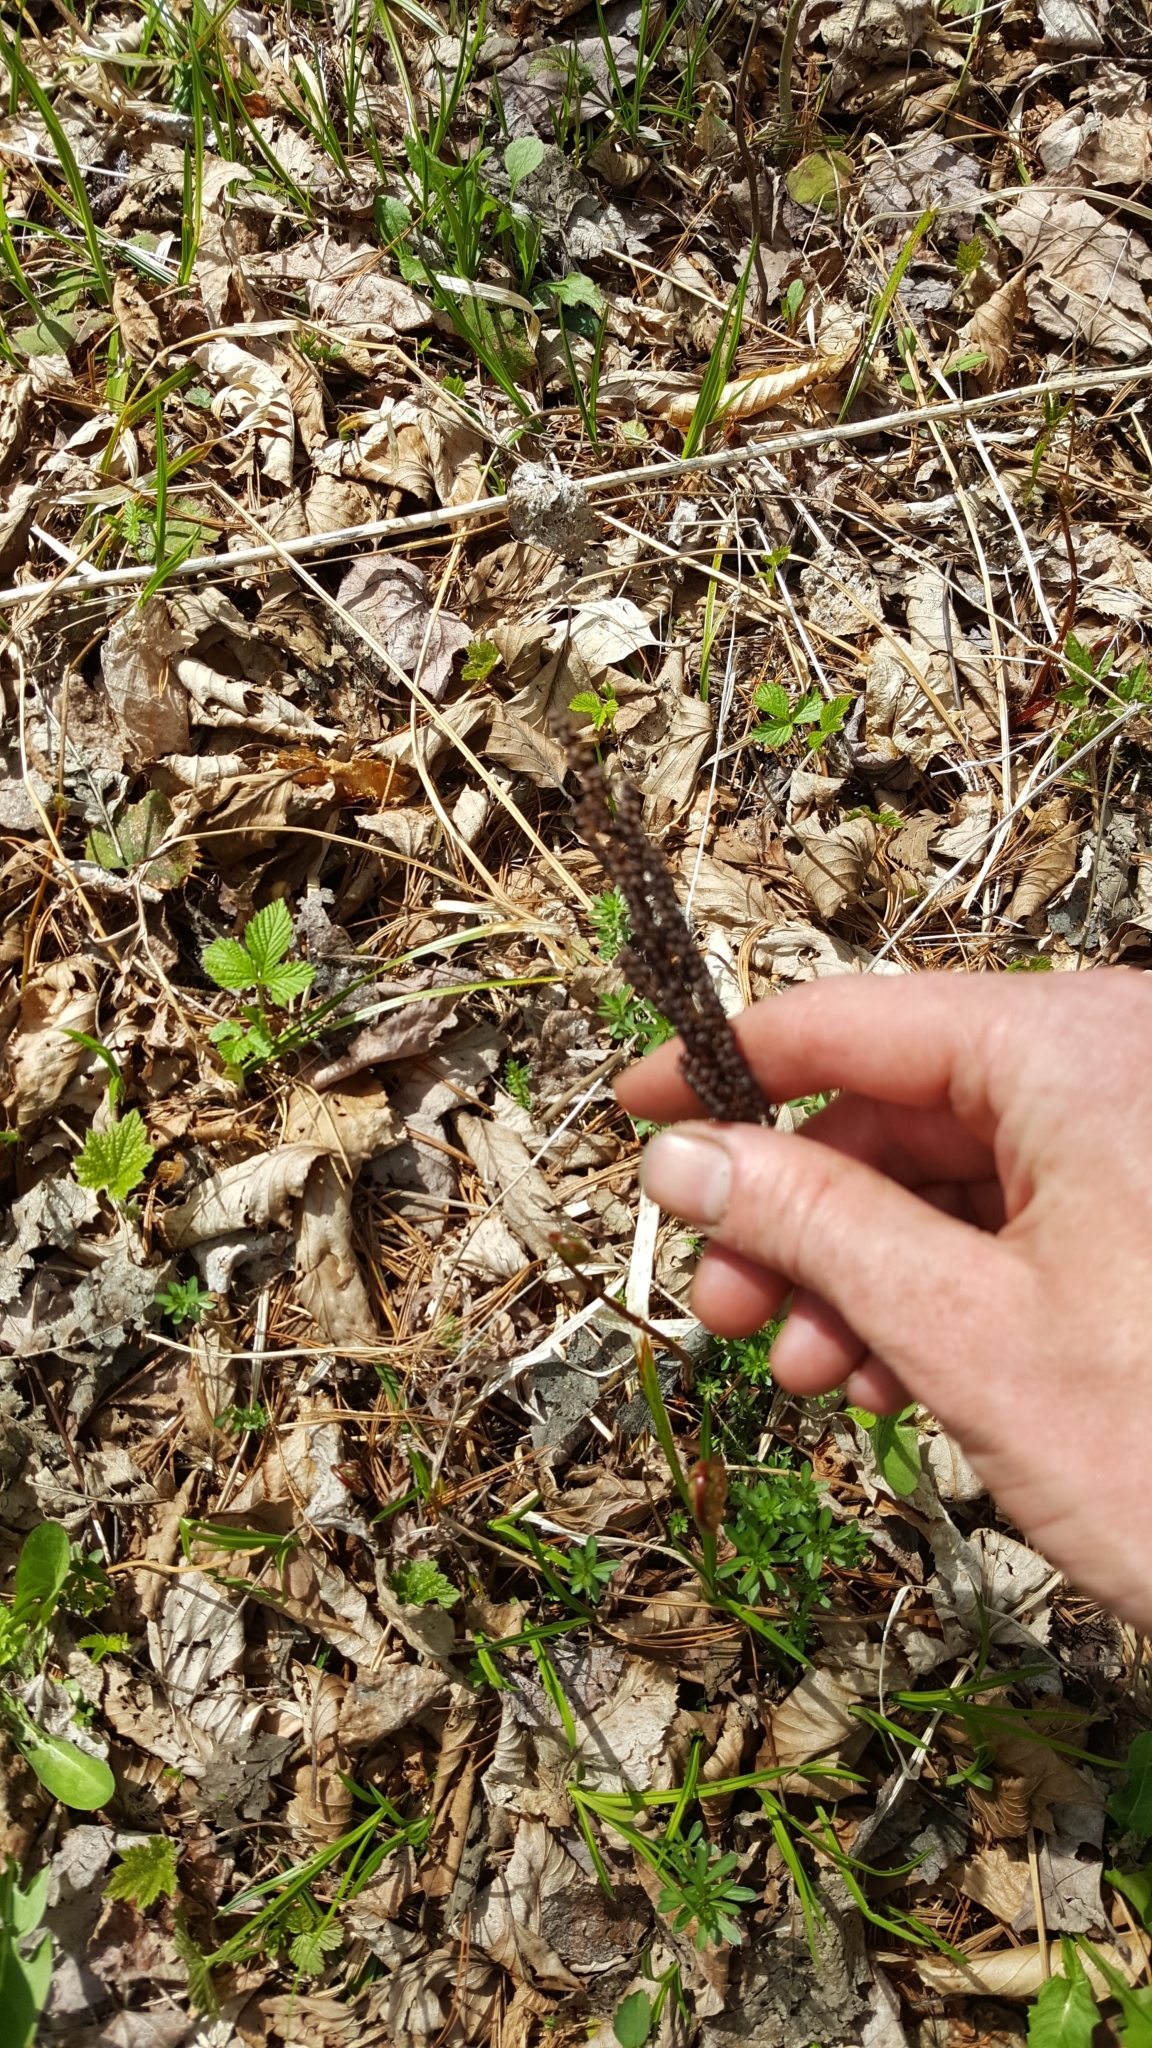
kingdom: Plantae
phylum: Tracheophyta
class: Polypodiopsida
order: Polypodiales
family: Onocleaceae
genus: Onoclea
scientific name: Onoclea sensibilis
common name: Sensitive fern
